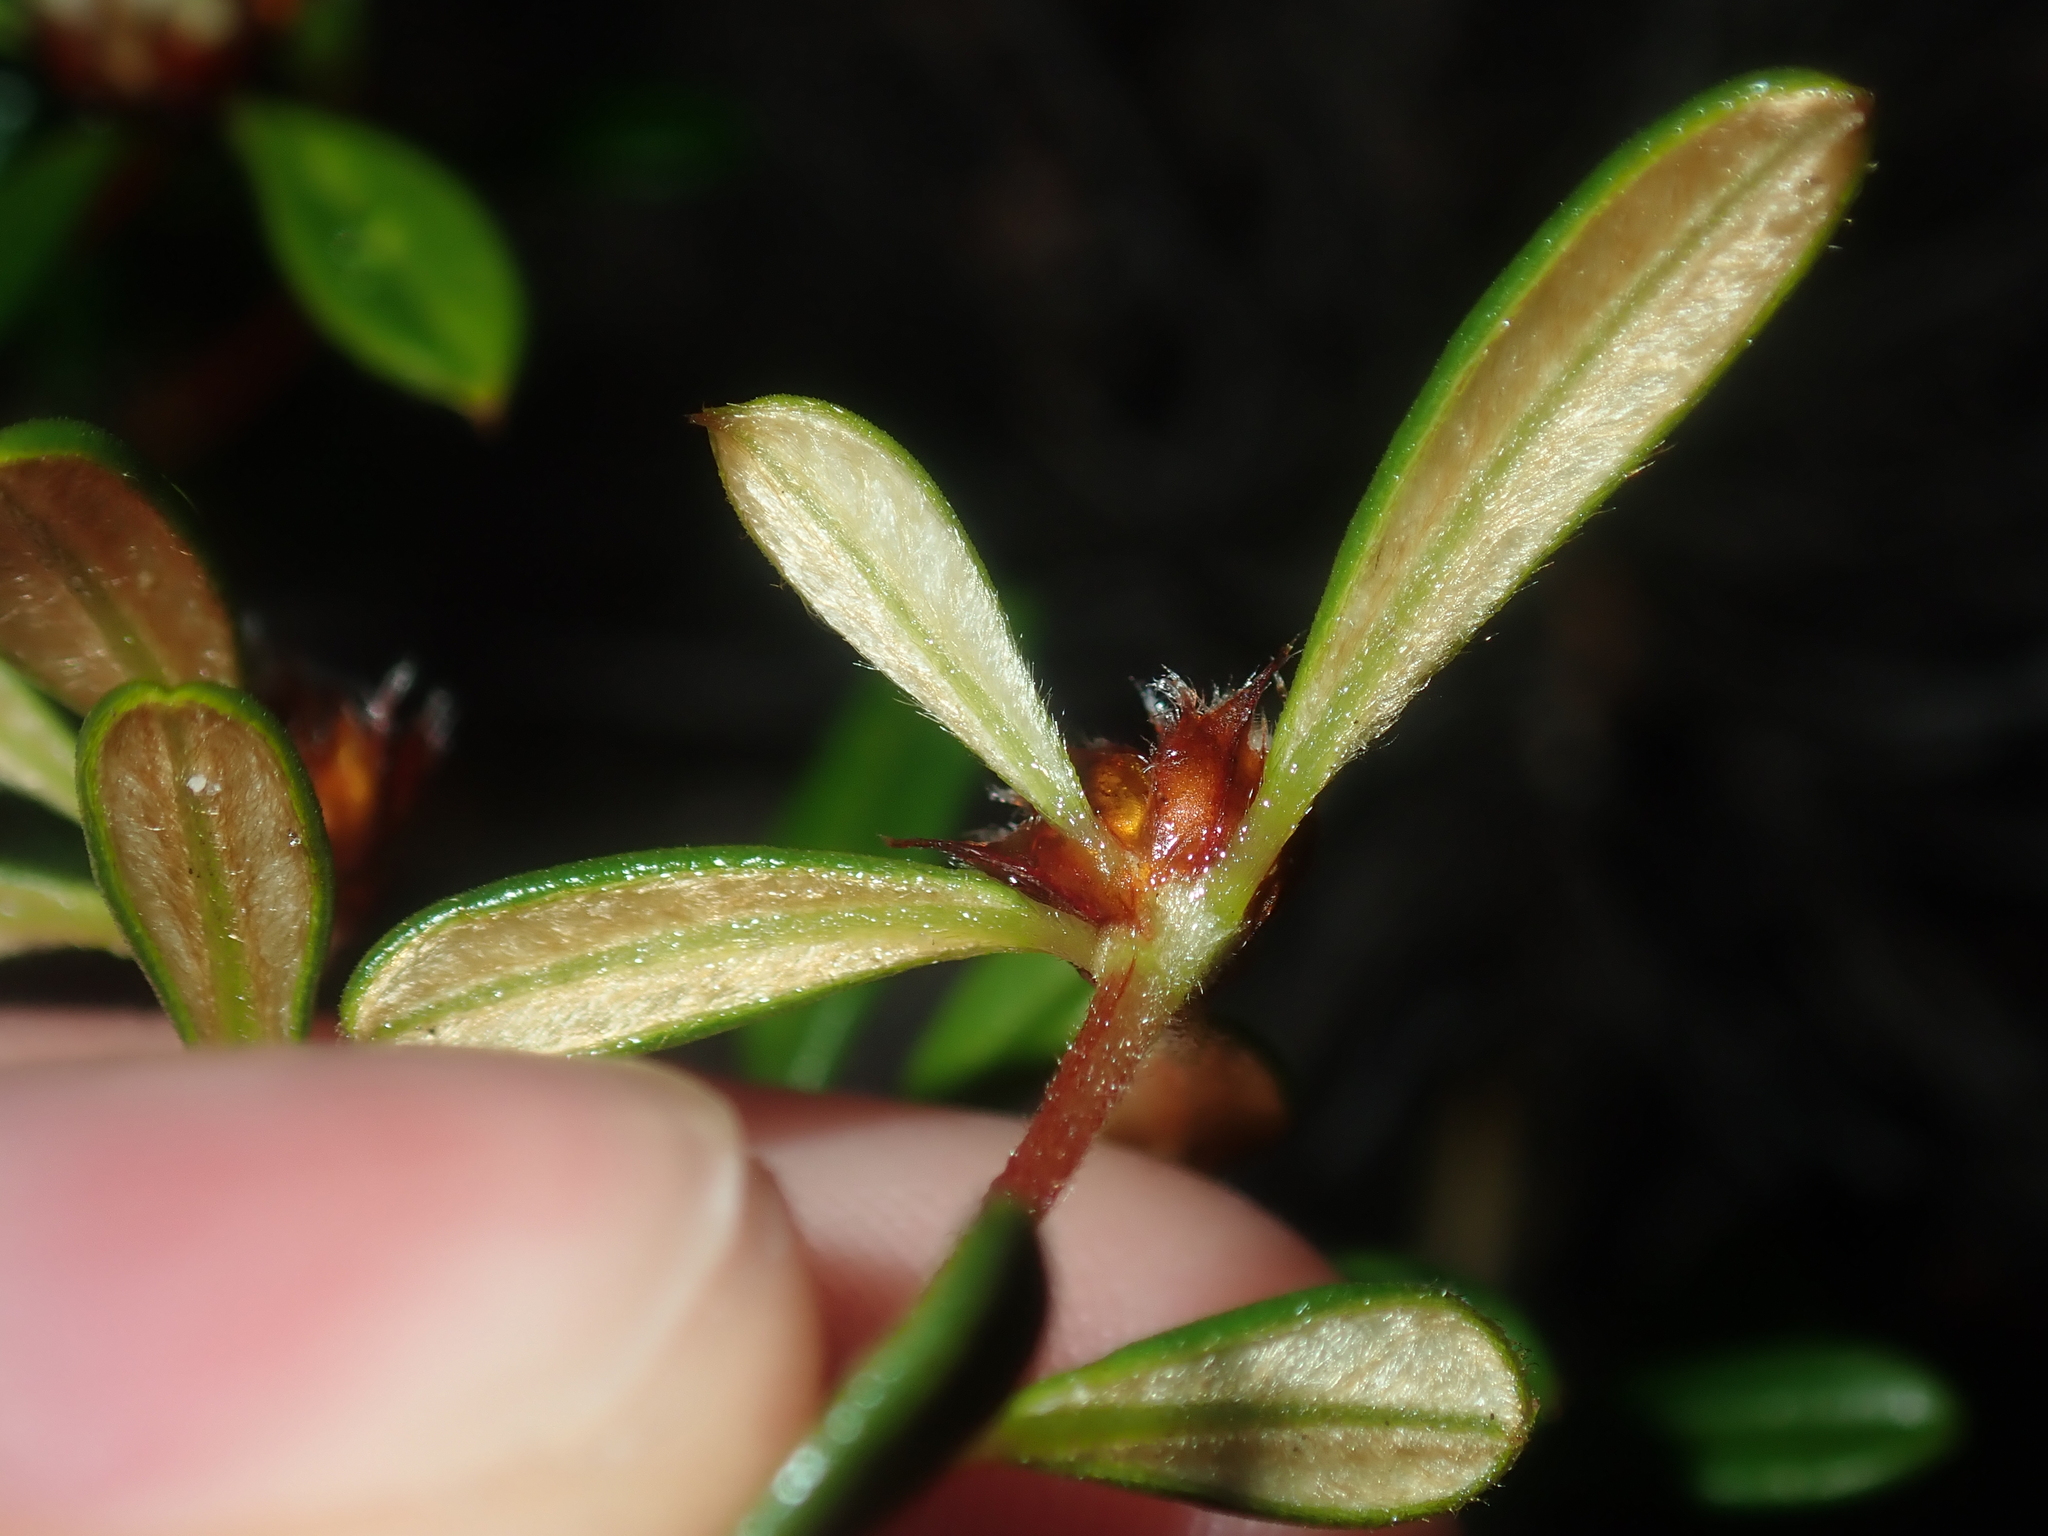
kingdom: Plantae
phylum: Tracheophyta
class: Magnoliopsida
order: Rosales
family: Rhamnaceae
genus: Stenanthemum
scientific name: Stenanthemum reissekii
